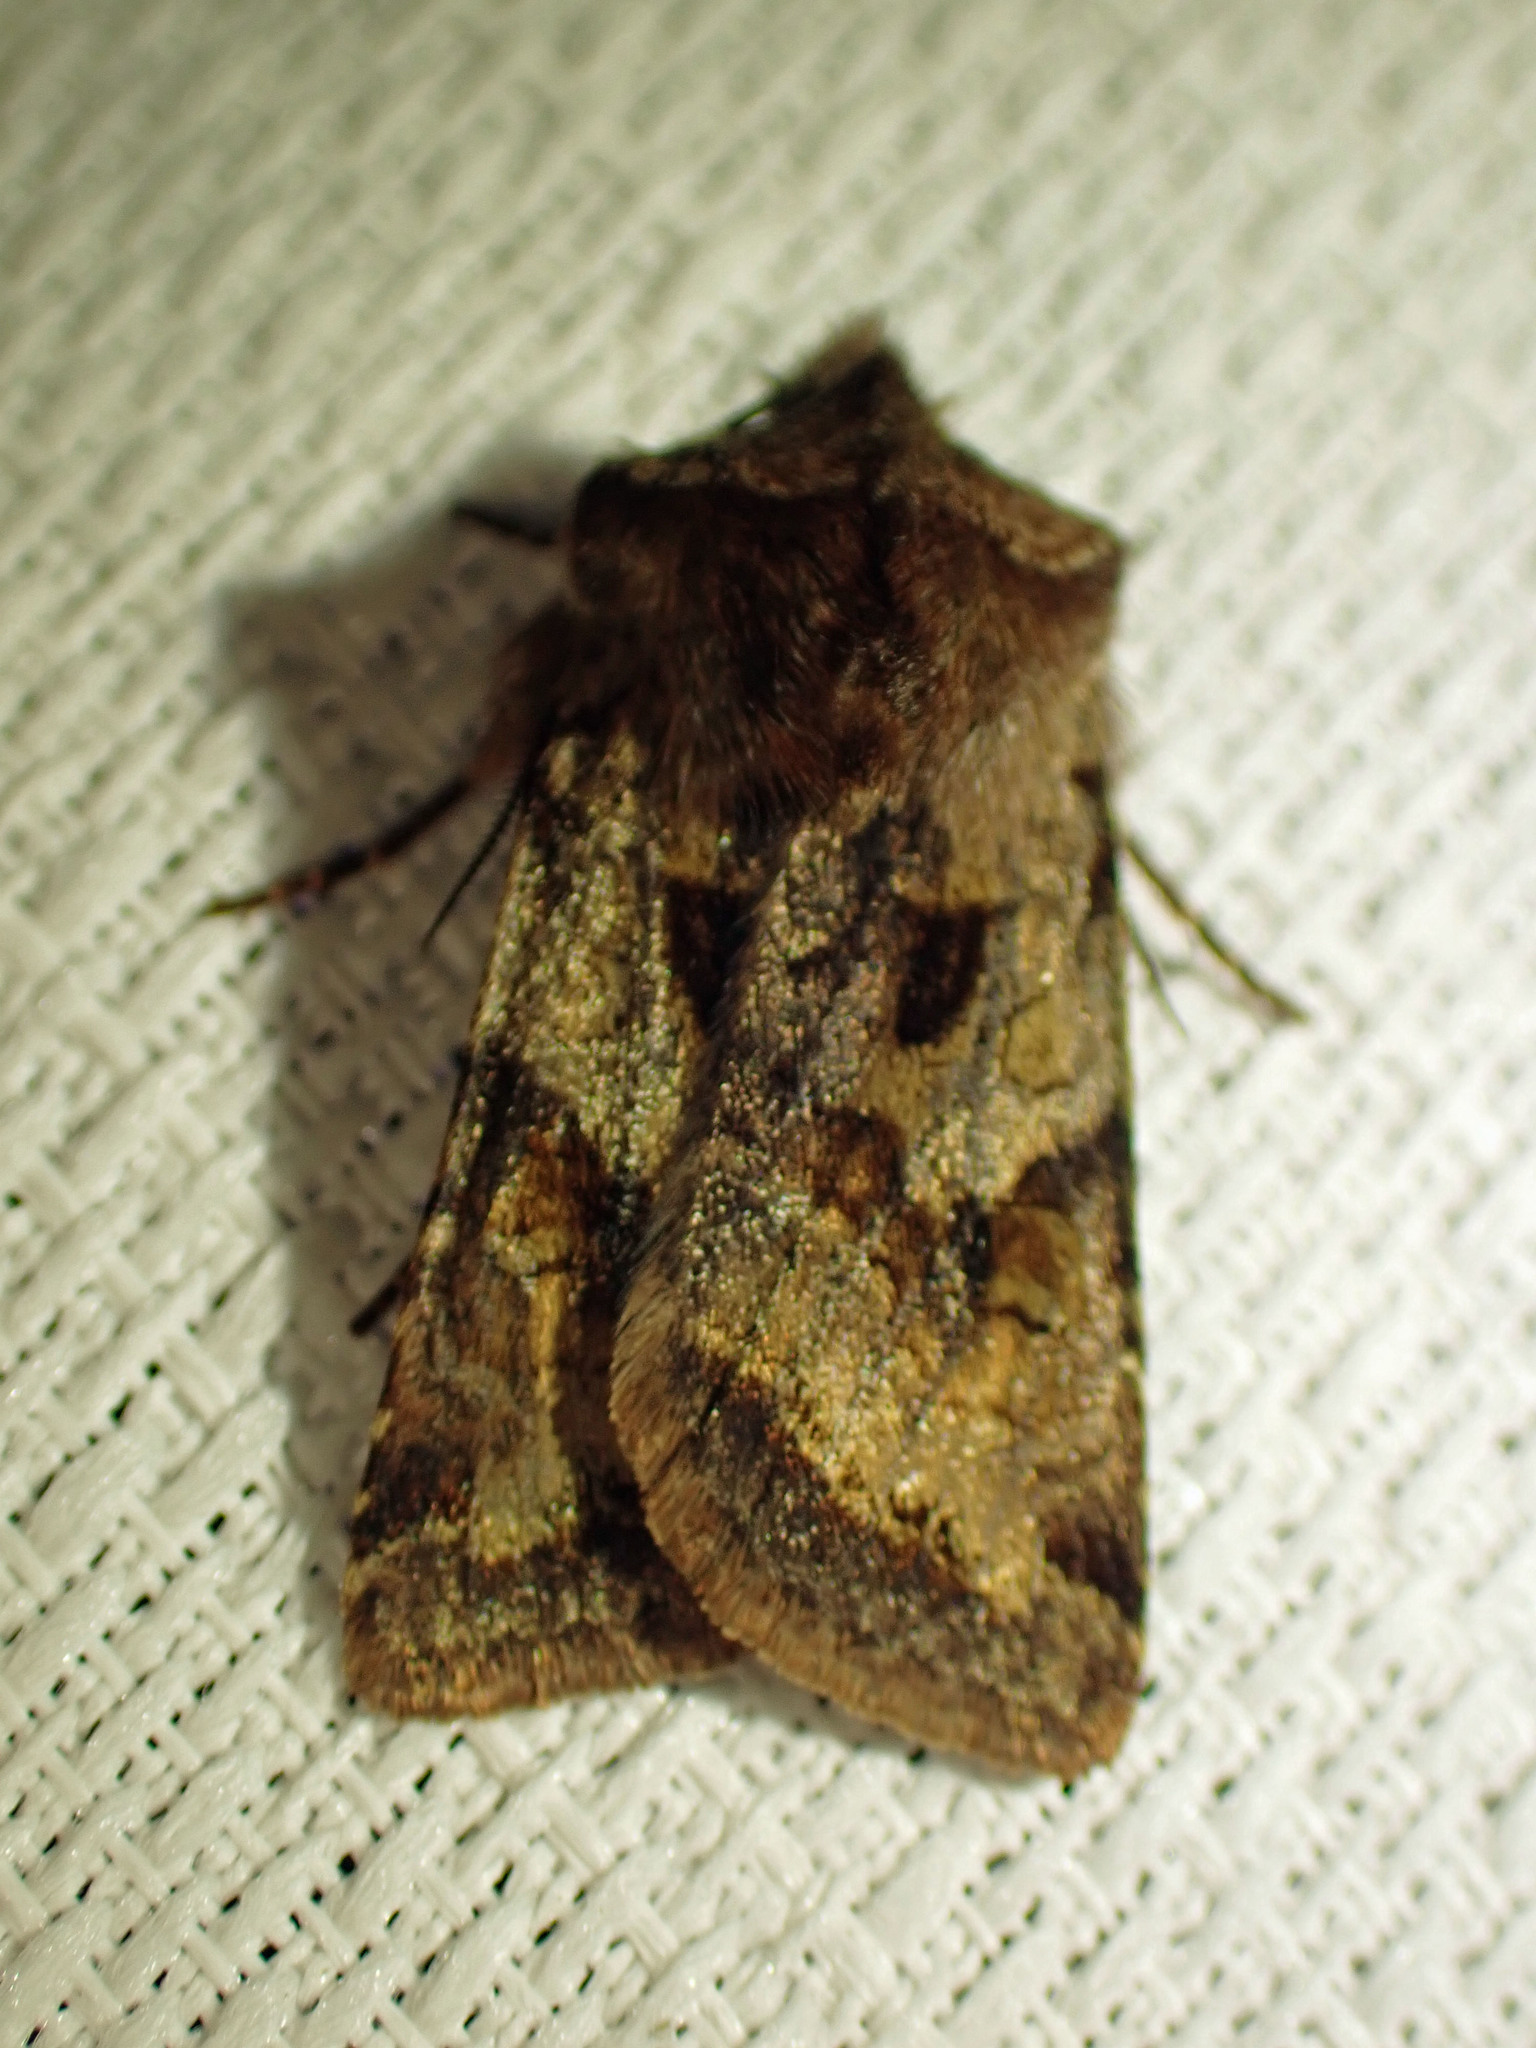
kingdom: Animalia
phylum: Arthropoda
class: Insecta
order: Lepidoptera
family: Noctuidae
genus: Cerastis
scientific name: Cerastis salicarum
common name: Willow dart
